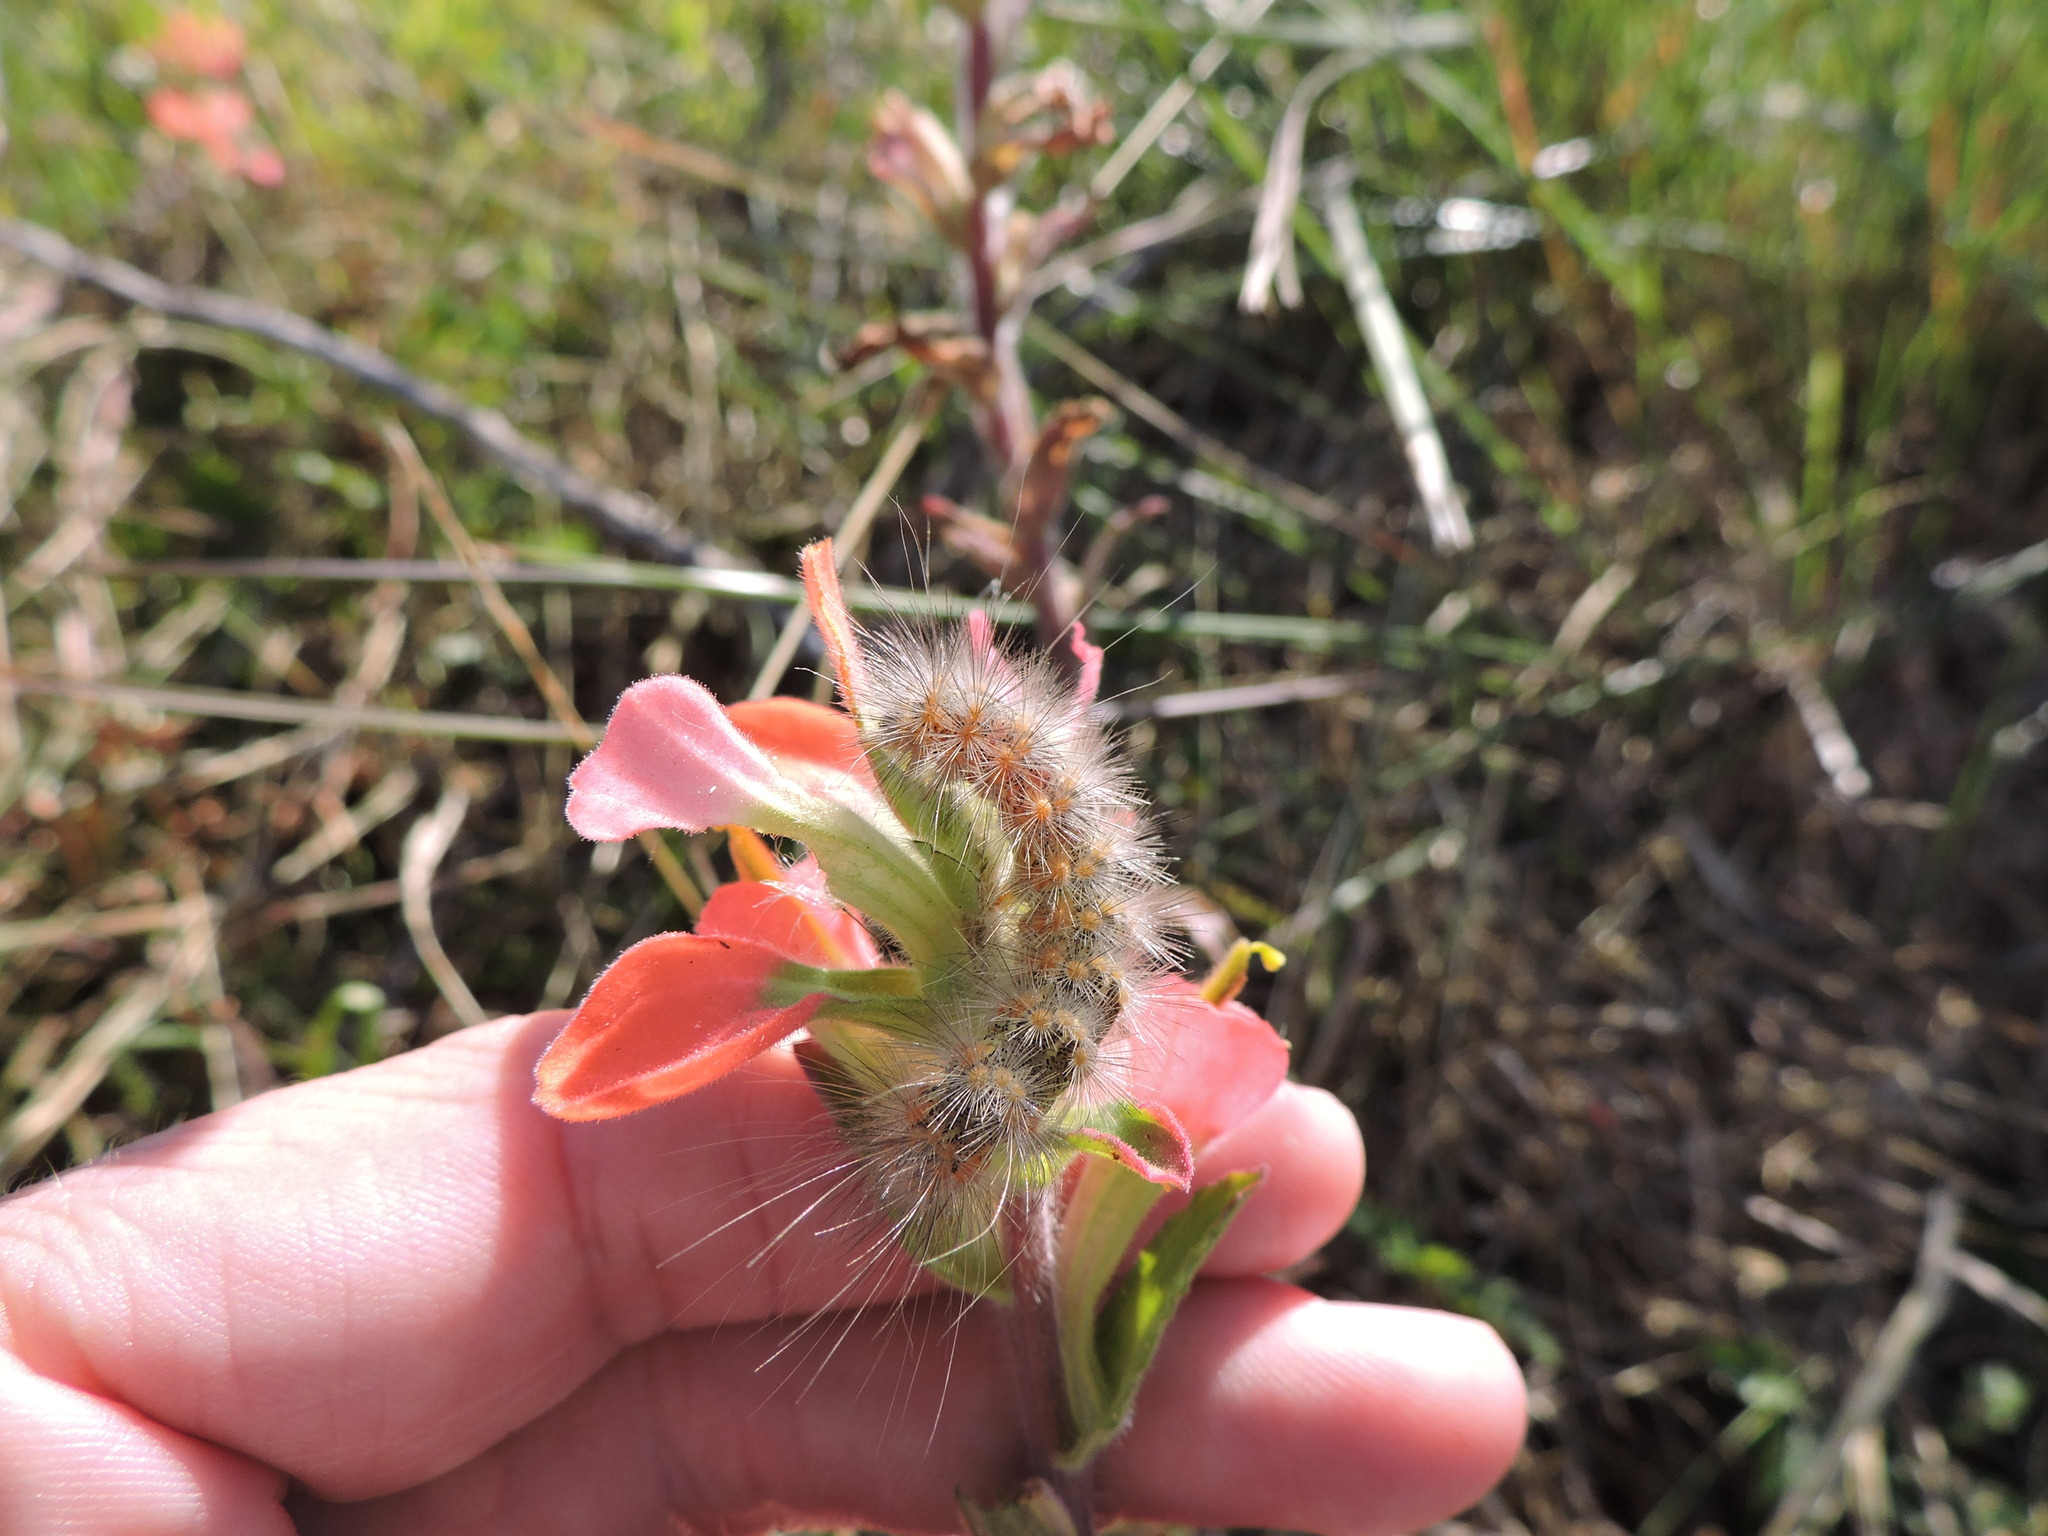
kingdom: Animalia
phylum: Arthropoda
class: Insecta
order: Lepidoptera
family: Erebidae
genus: Estigmene
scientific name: Estigmene acrea
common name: Salt marsh moth
